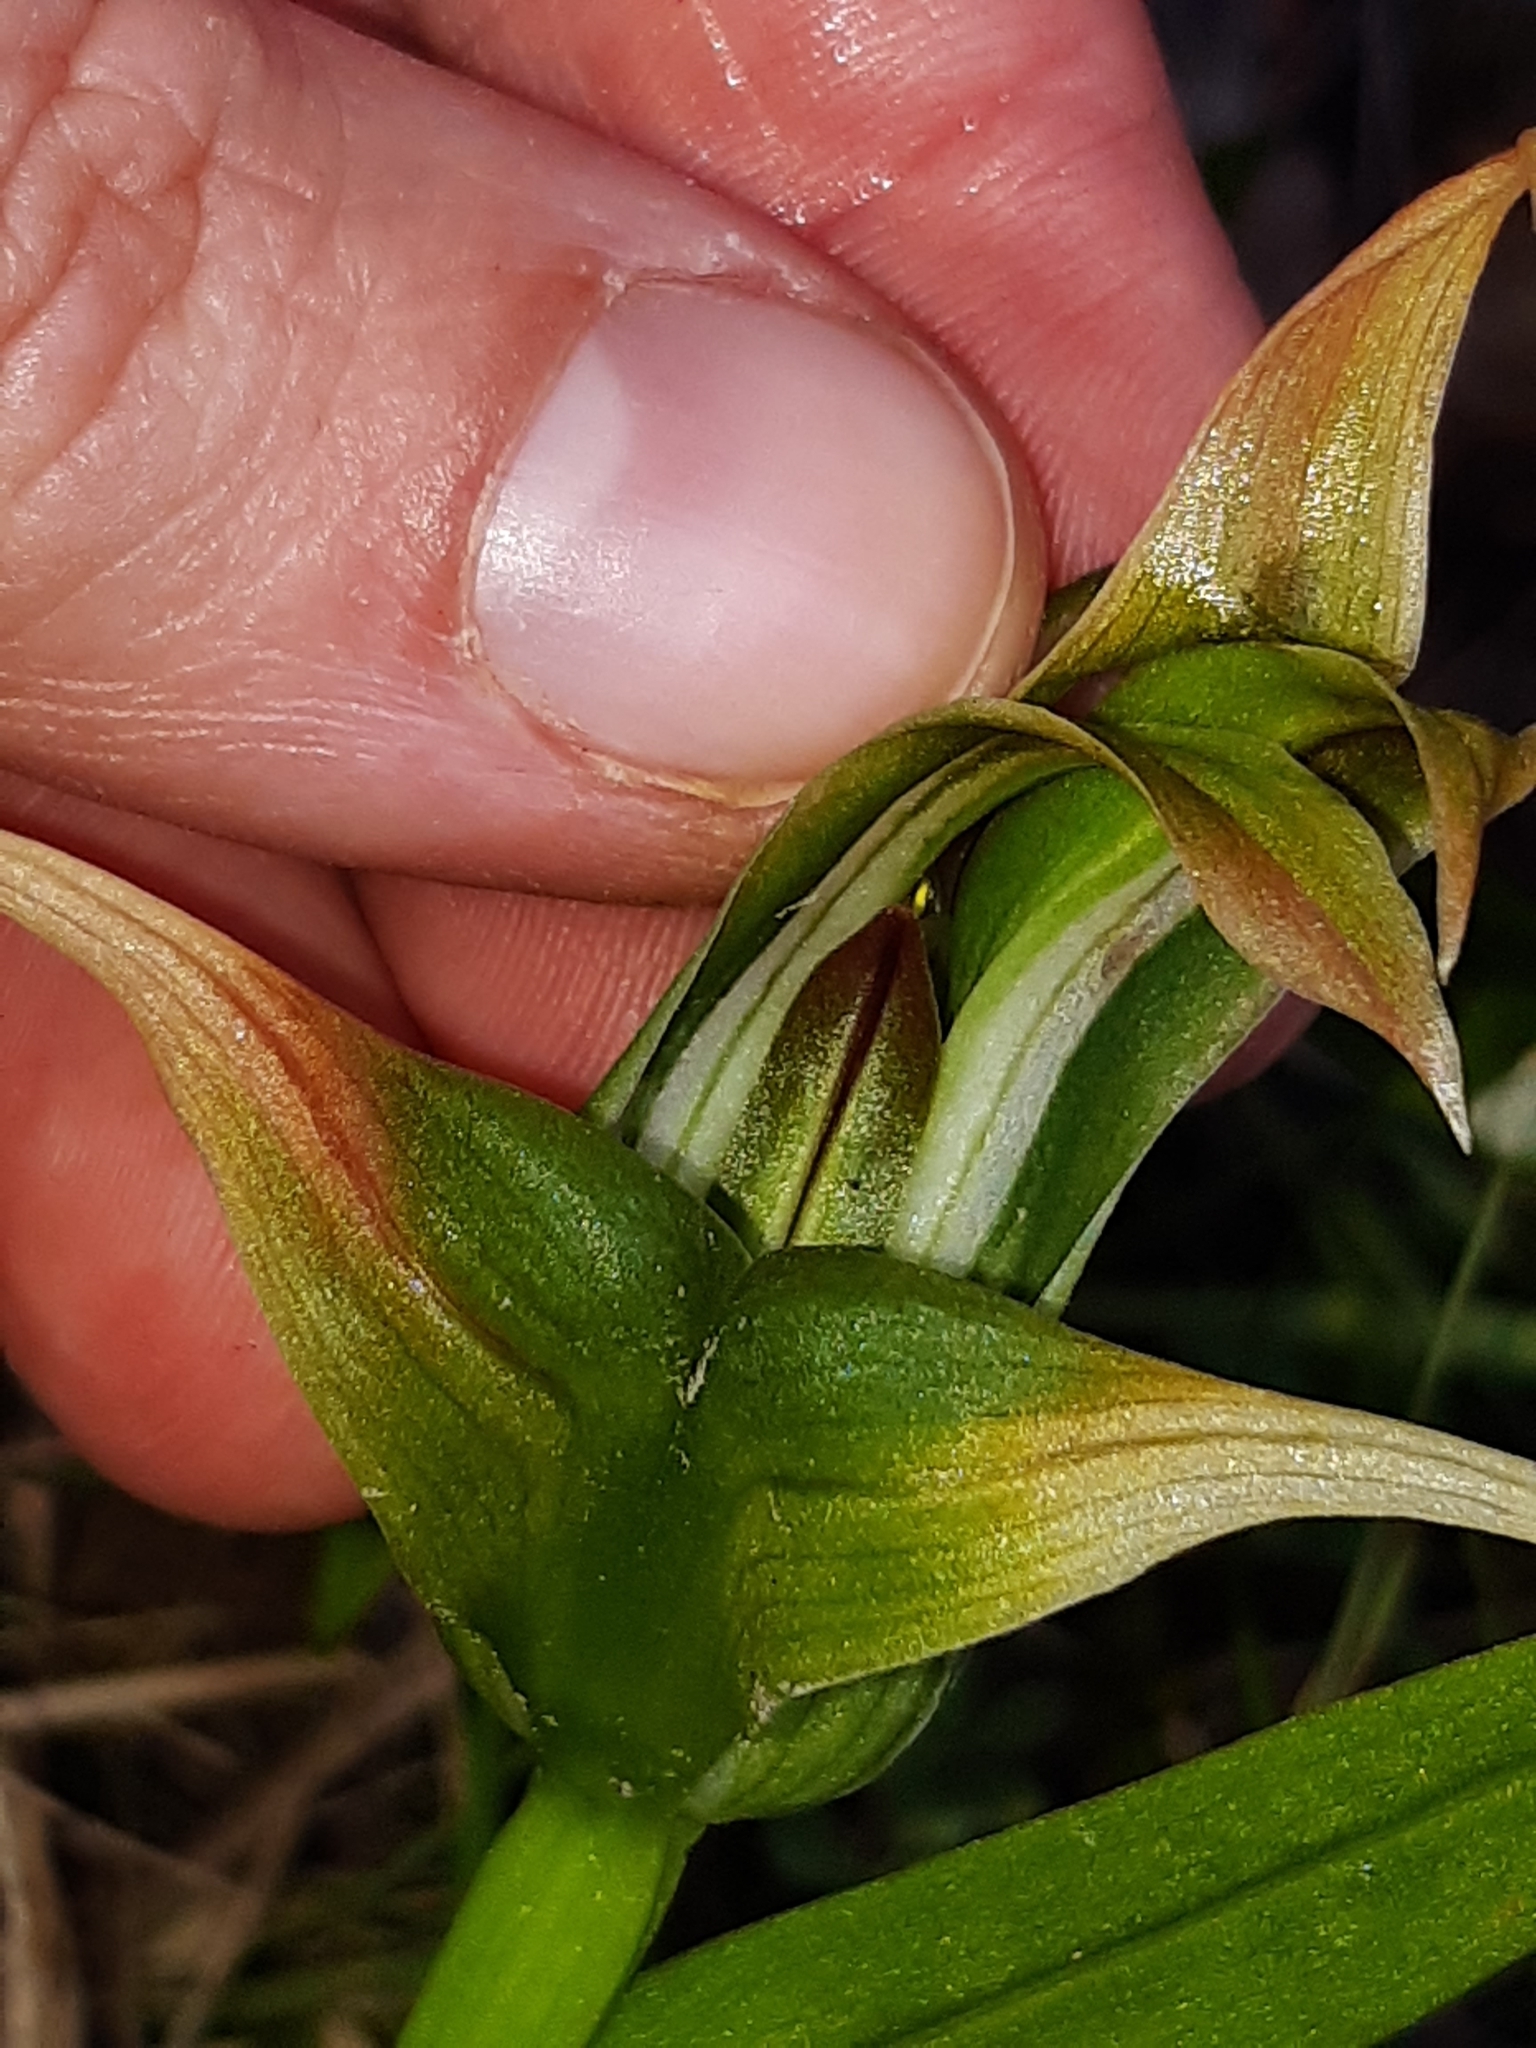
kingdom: Plantae
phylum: Tracheophyta
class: Liliopsida
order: Asparagales
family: Orchidaceae
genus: Pterostylis
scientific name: Pterostylis patens
